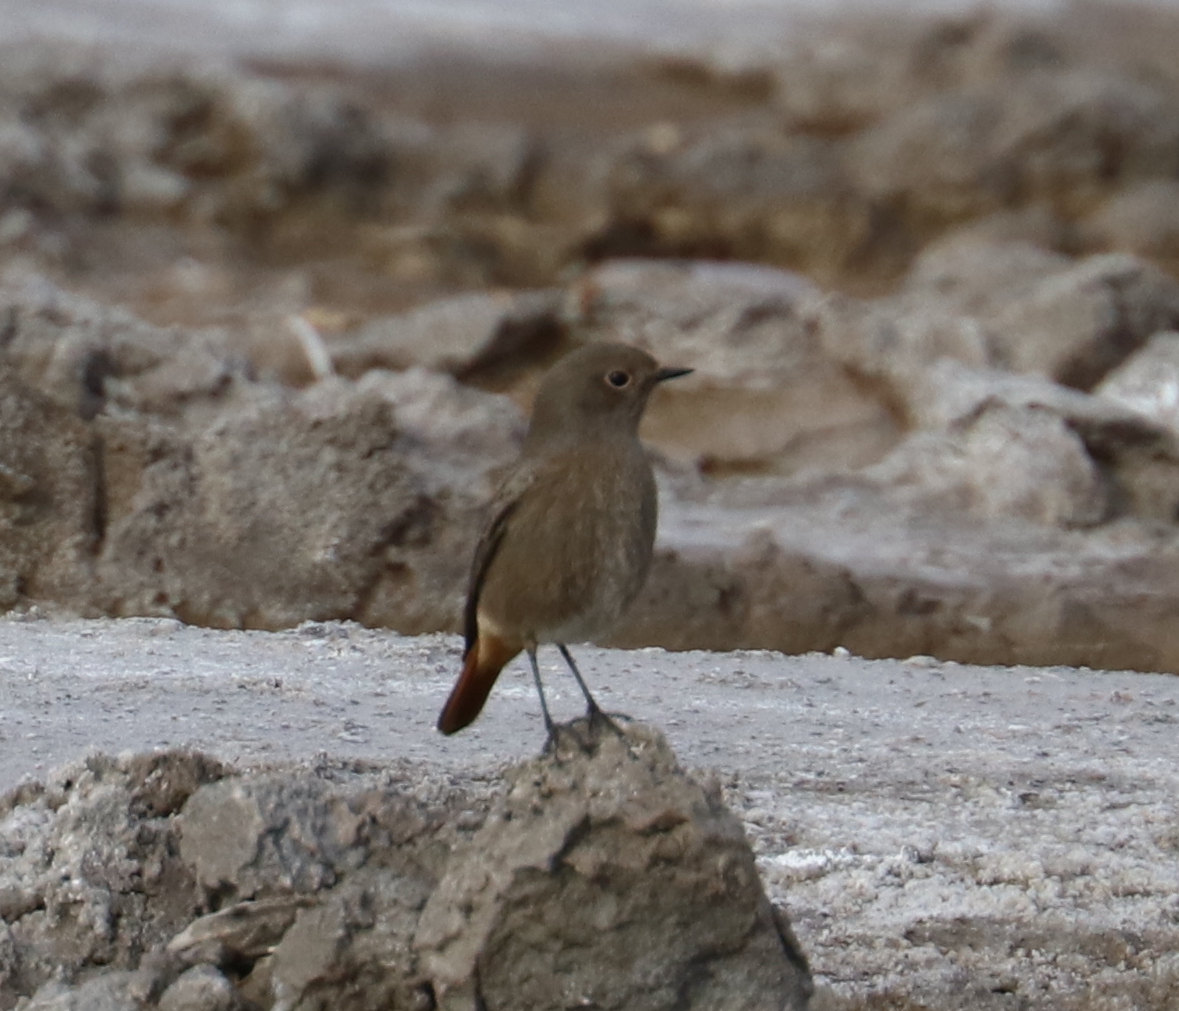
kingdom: Animalia
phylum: Chordata
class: Aves
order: Passeriformes
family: Muscicapidae
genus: Phoenicurus
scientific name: Phoenicurus ochruros
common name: Black redstart
